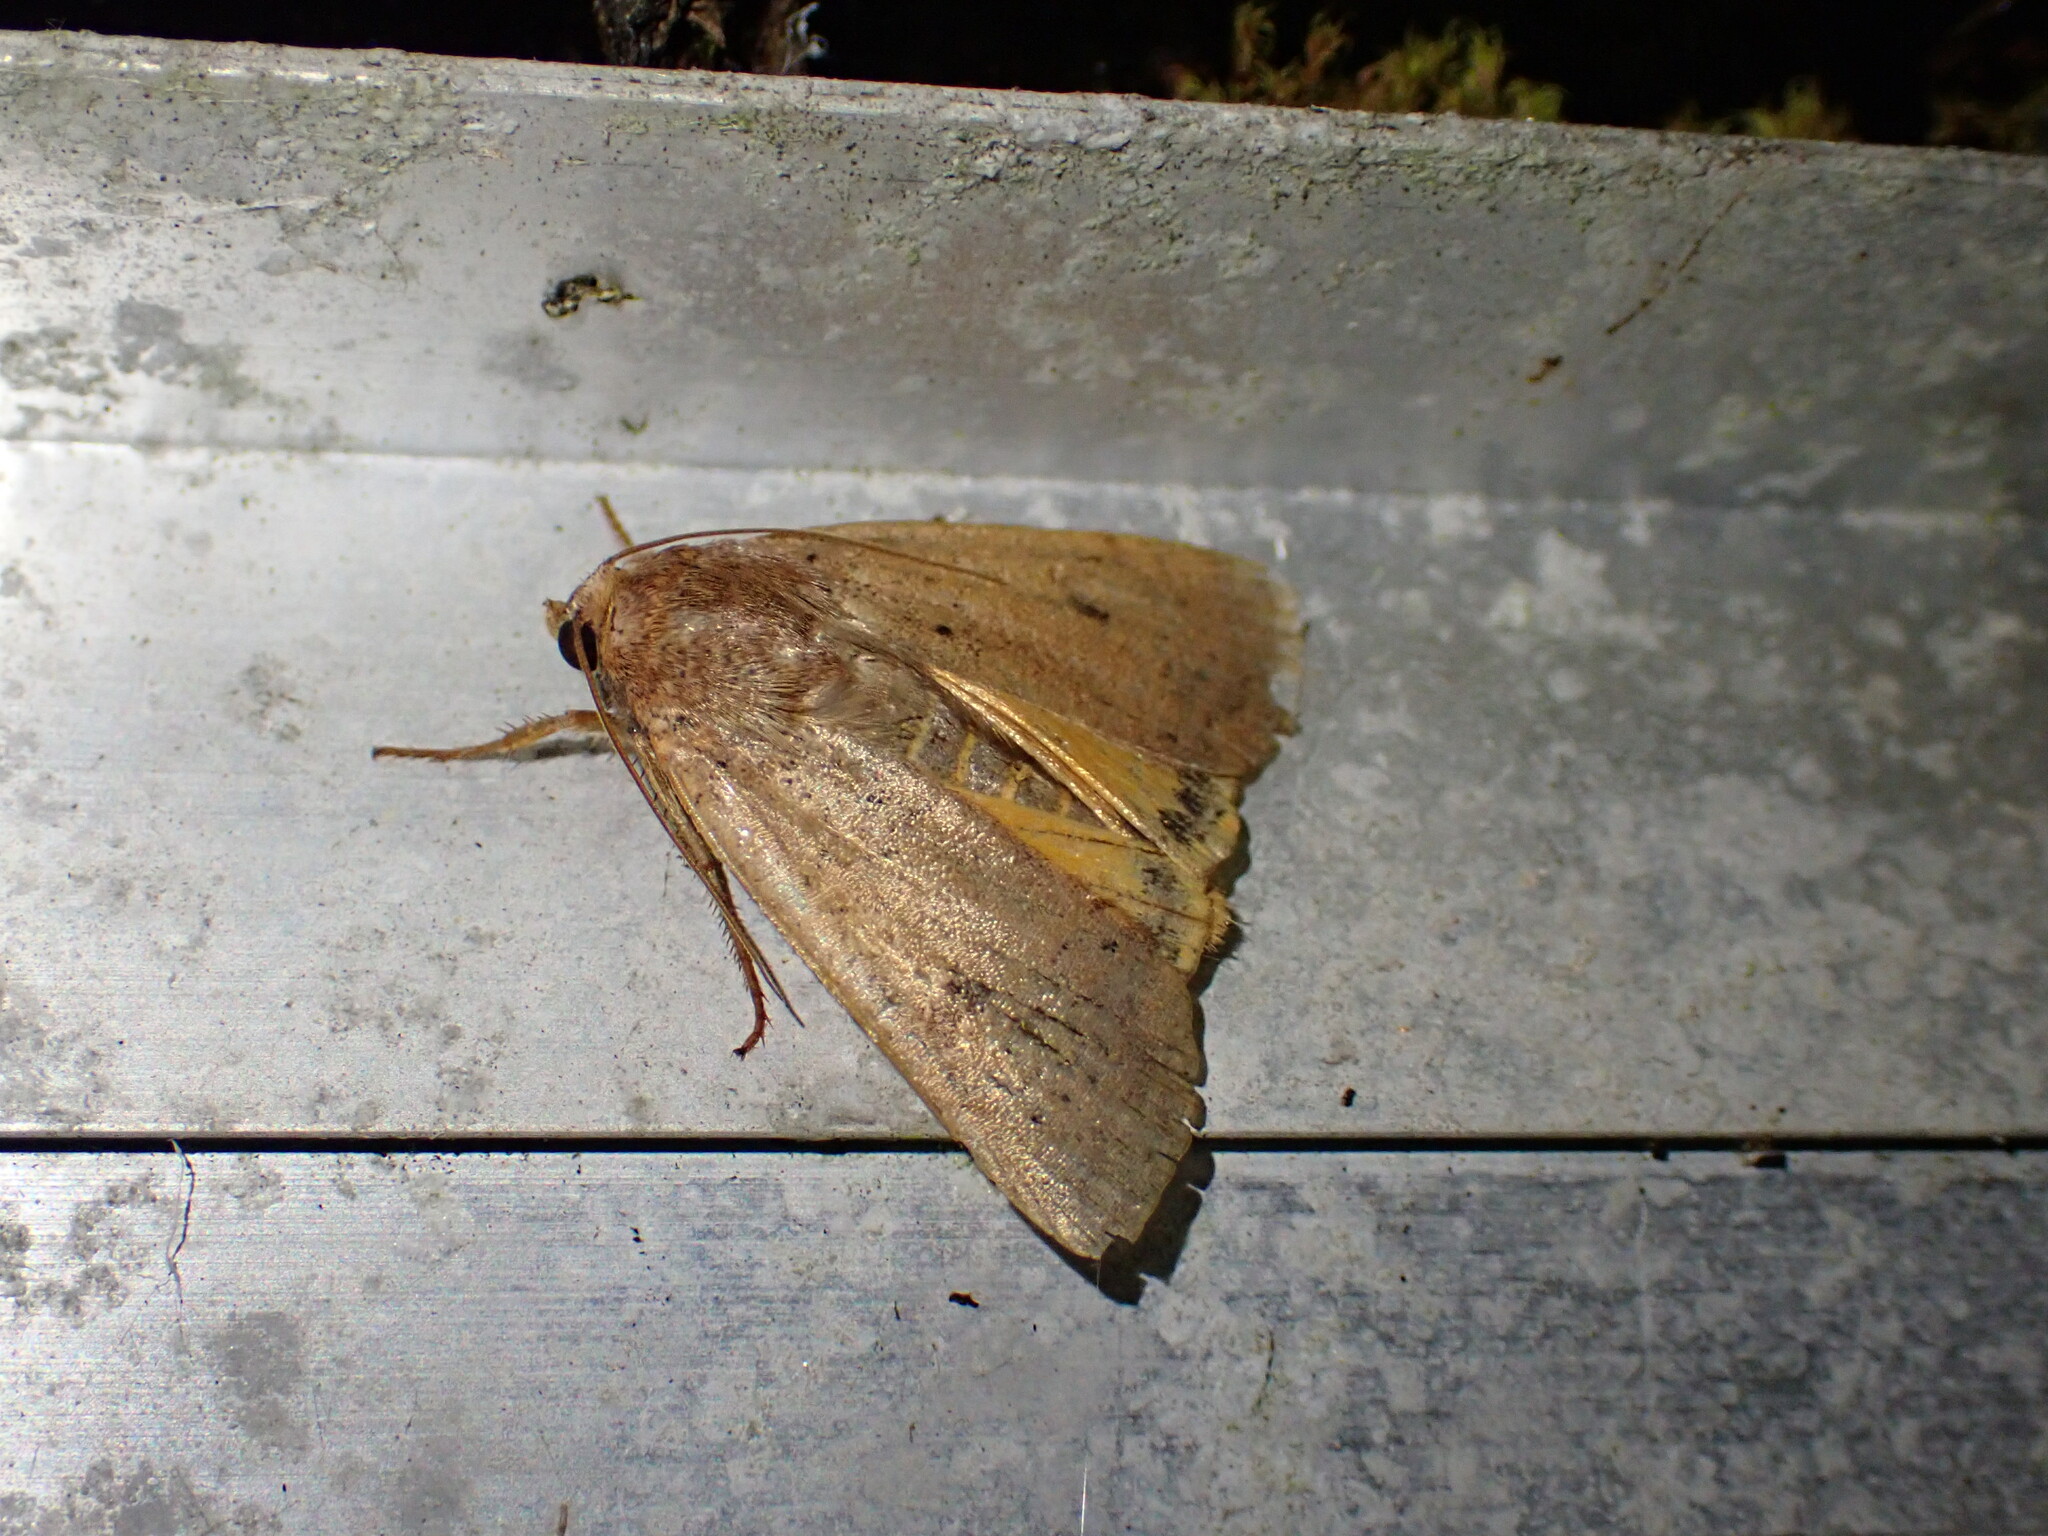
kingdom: Animalia
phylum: Arthropoda
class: Insecta
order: Lepidoptera
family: Noctuidae
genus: Noctua
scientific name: Noctua comes
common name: Lesser yellow underwing
